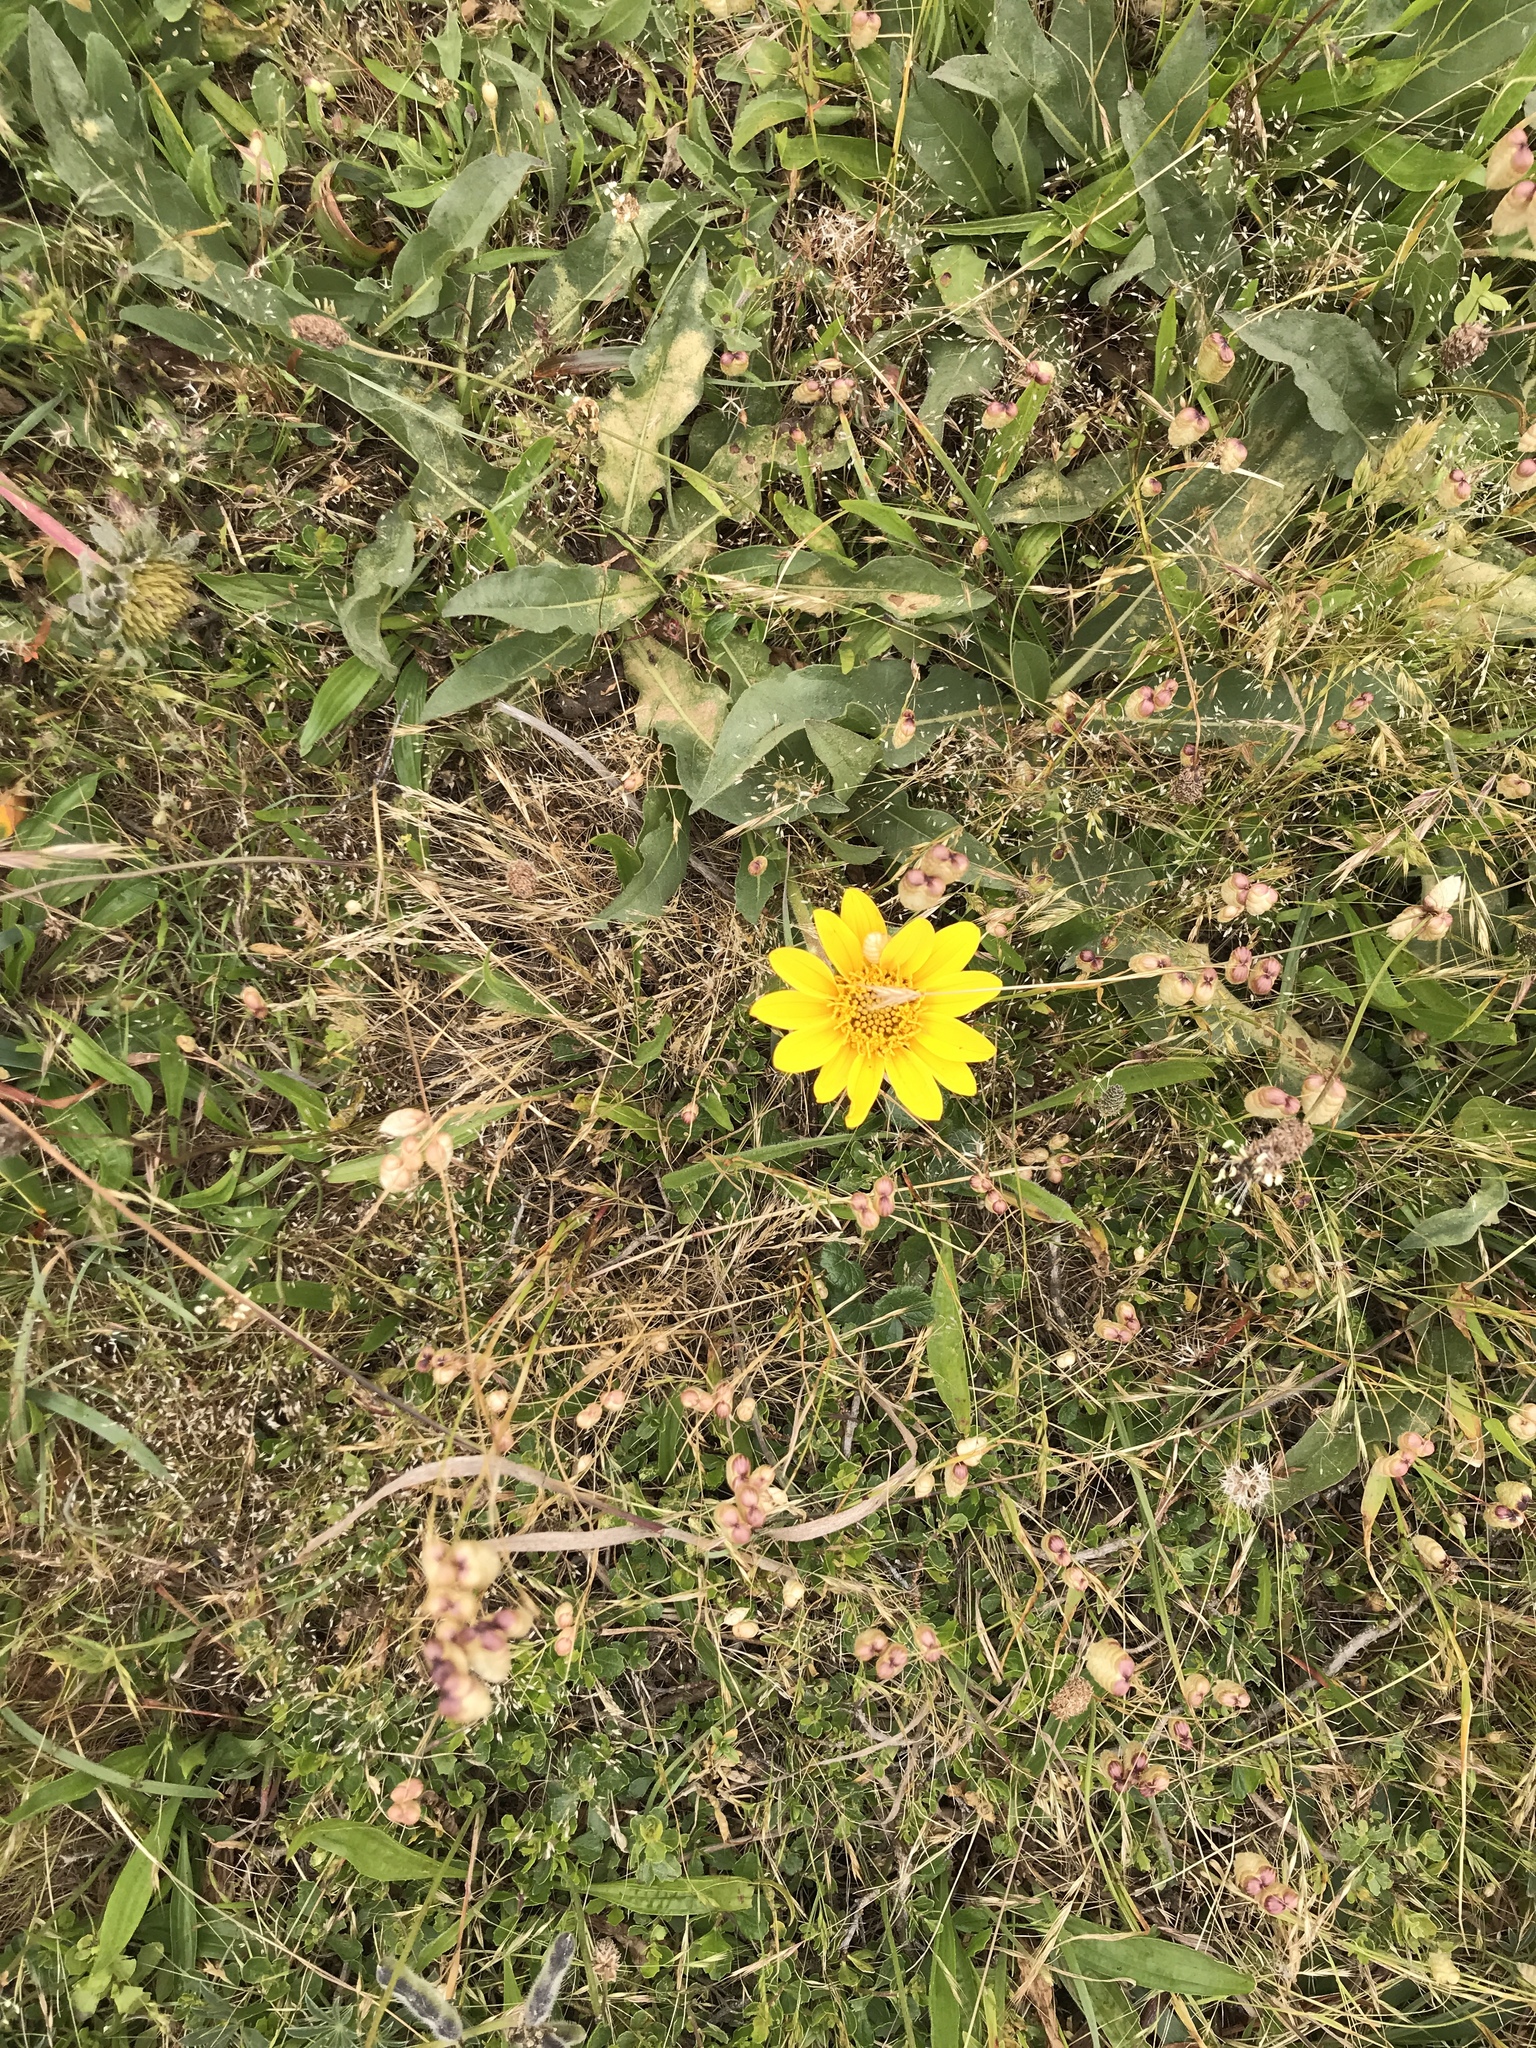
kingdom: Plantae
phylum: Tracheophyta
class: Magnoliopsida
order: Asterales
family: Asteraceae
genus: Wyethia
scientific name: Wyethia angustifolia
